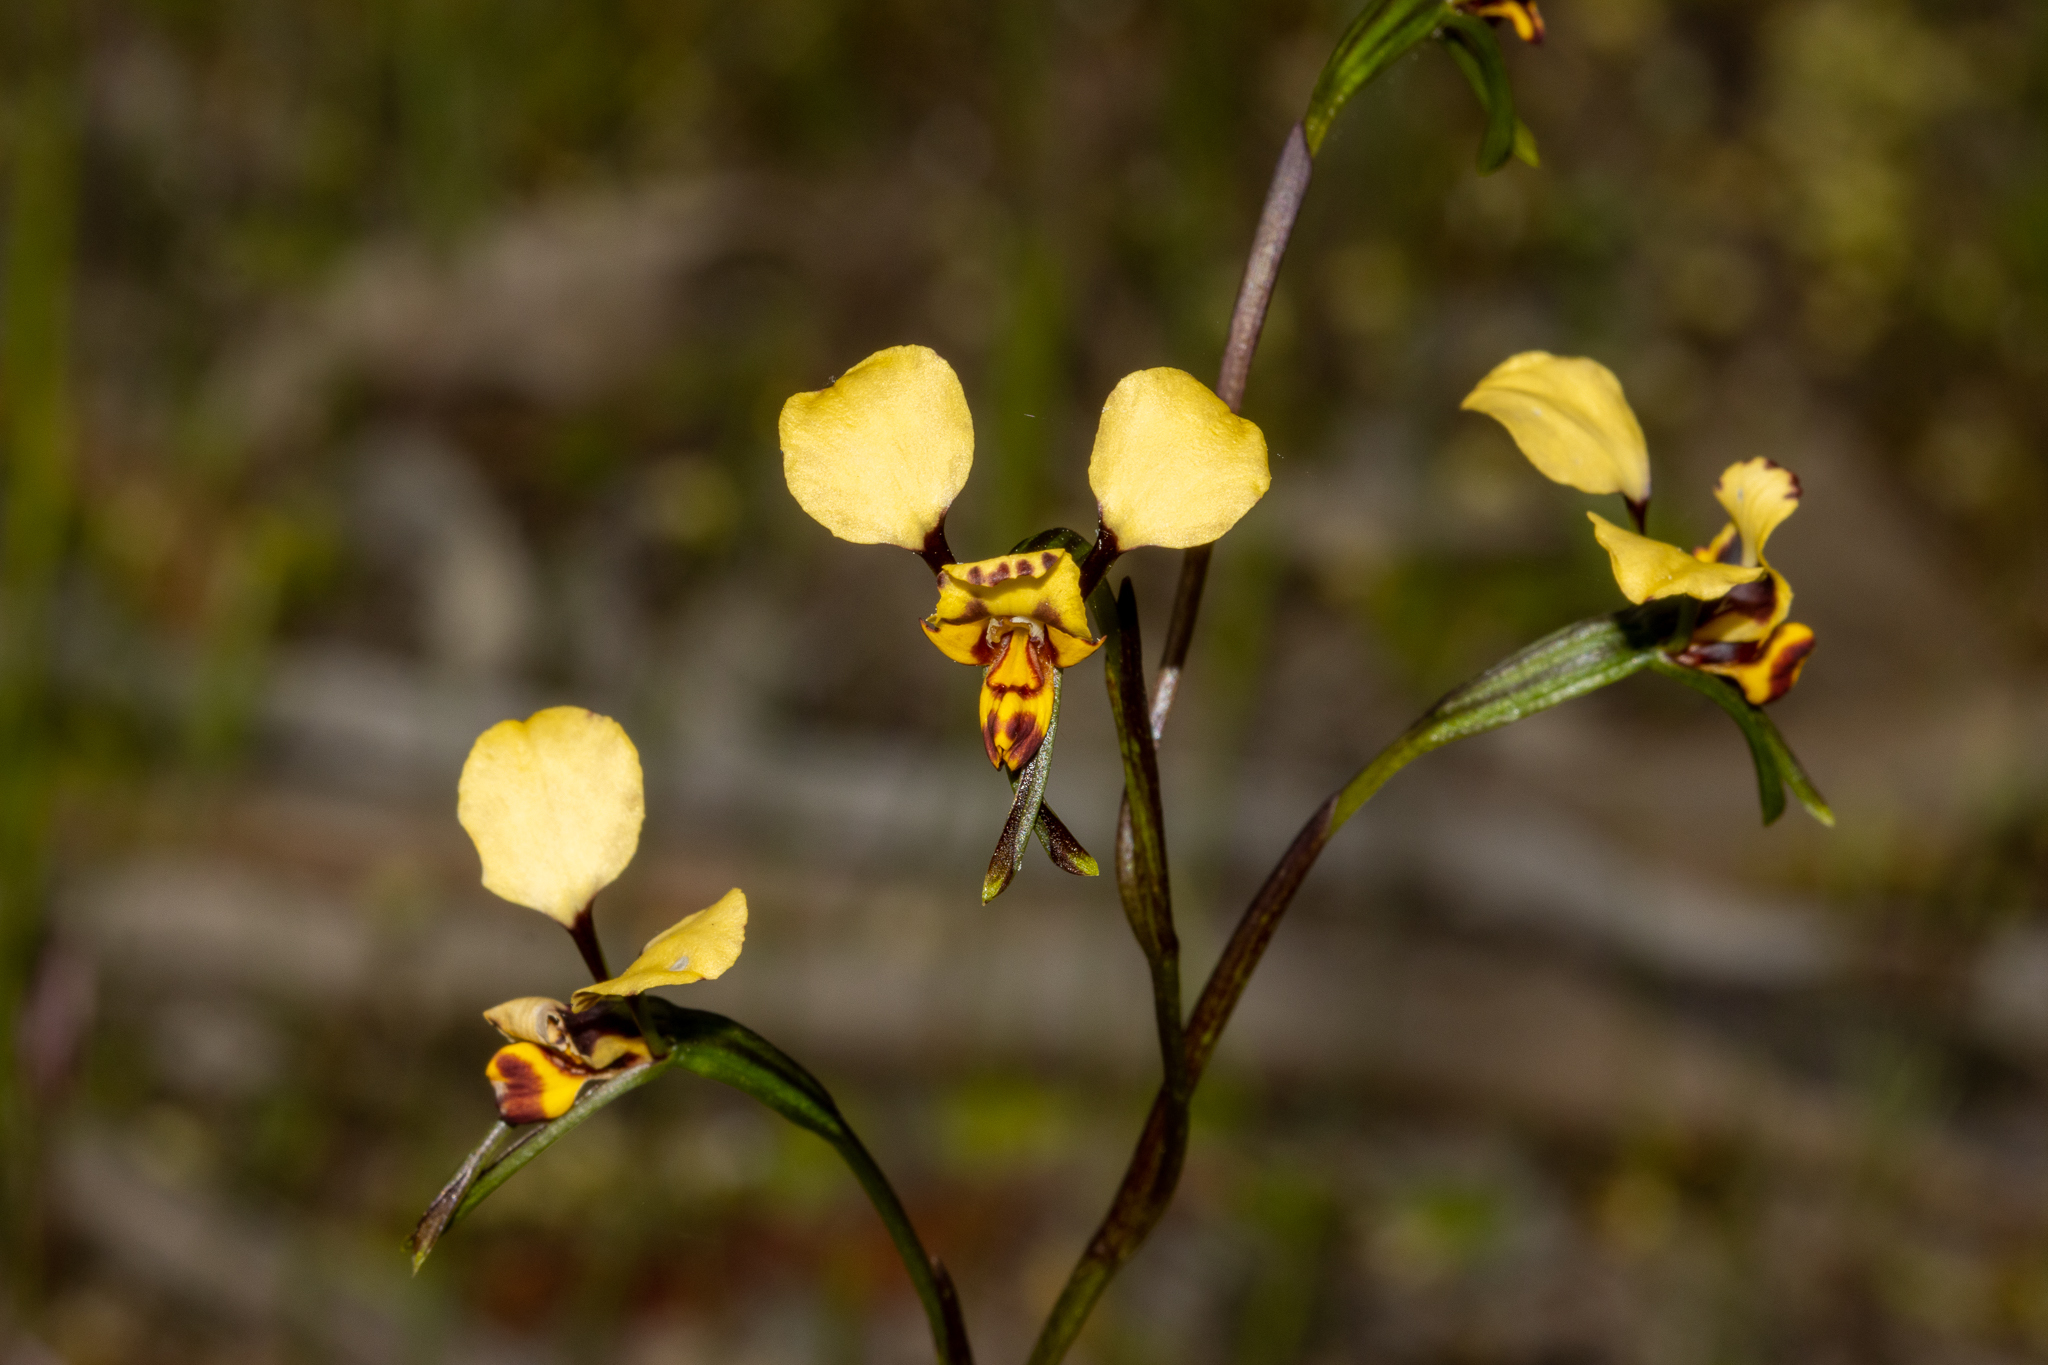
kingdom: Plantae
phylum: Tracheophyta
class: Liliopsida
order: Asparagales
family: Orchidaceae
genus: Diuris
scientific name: Diuris pardina
